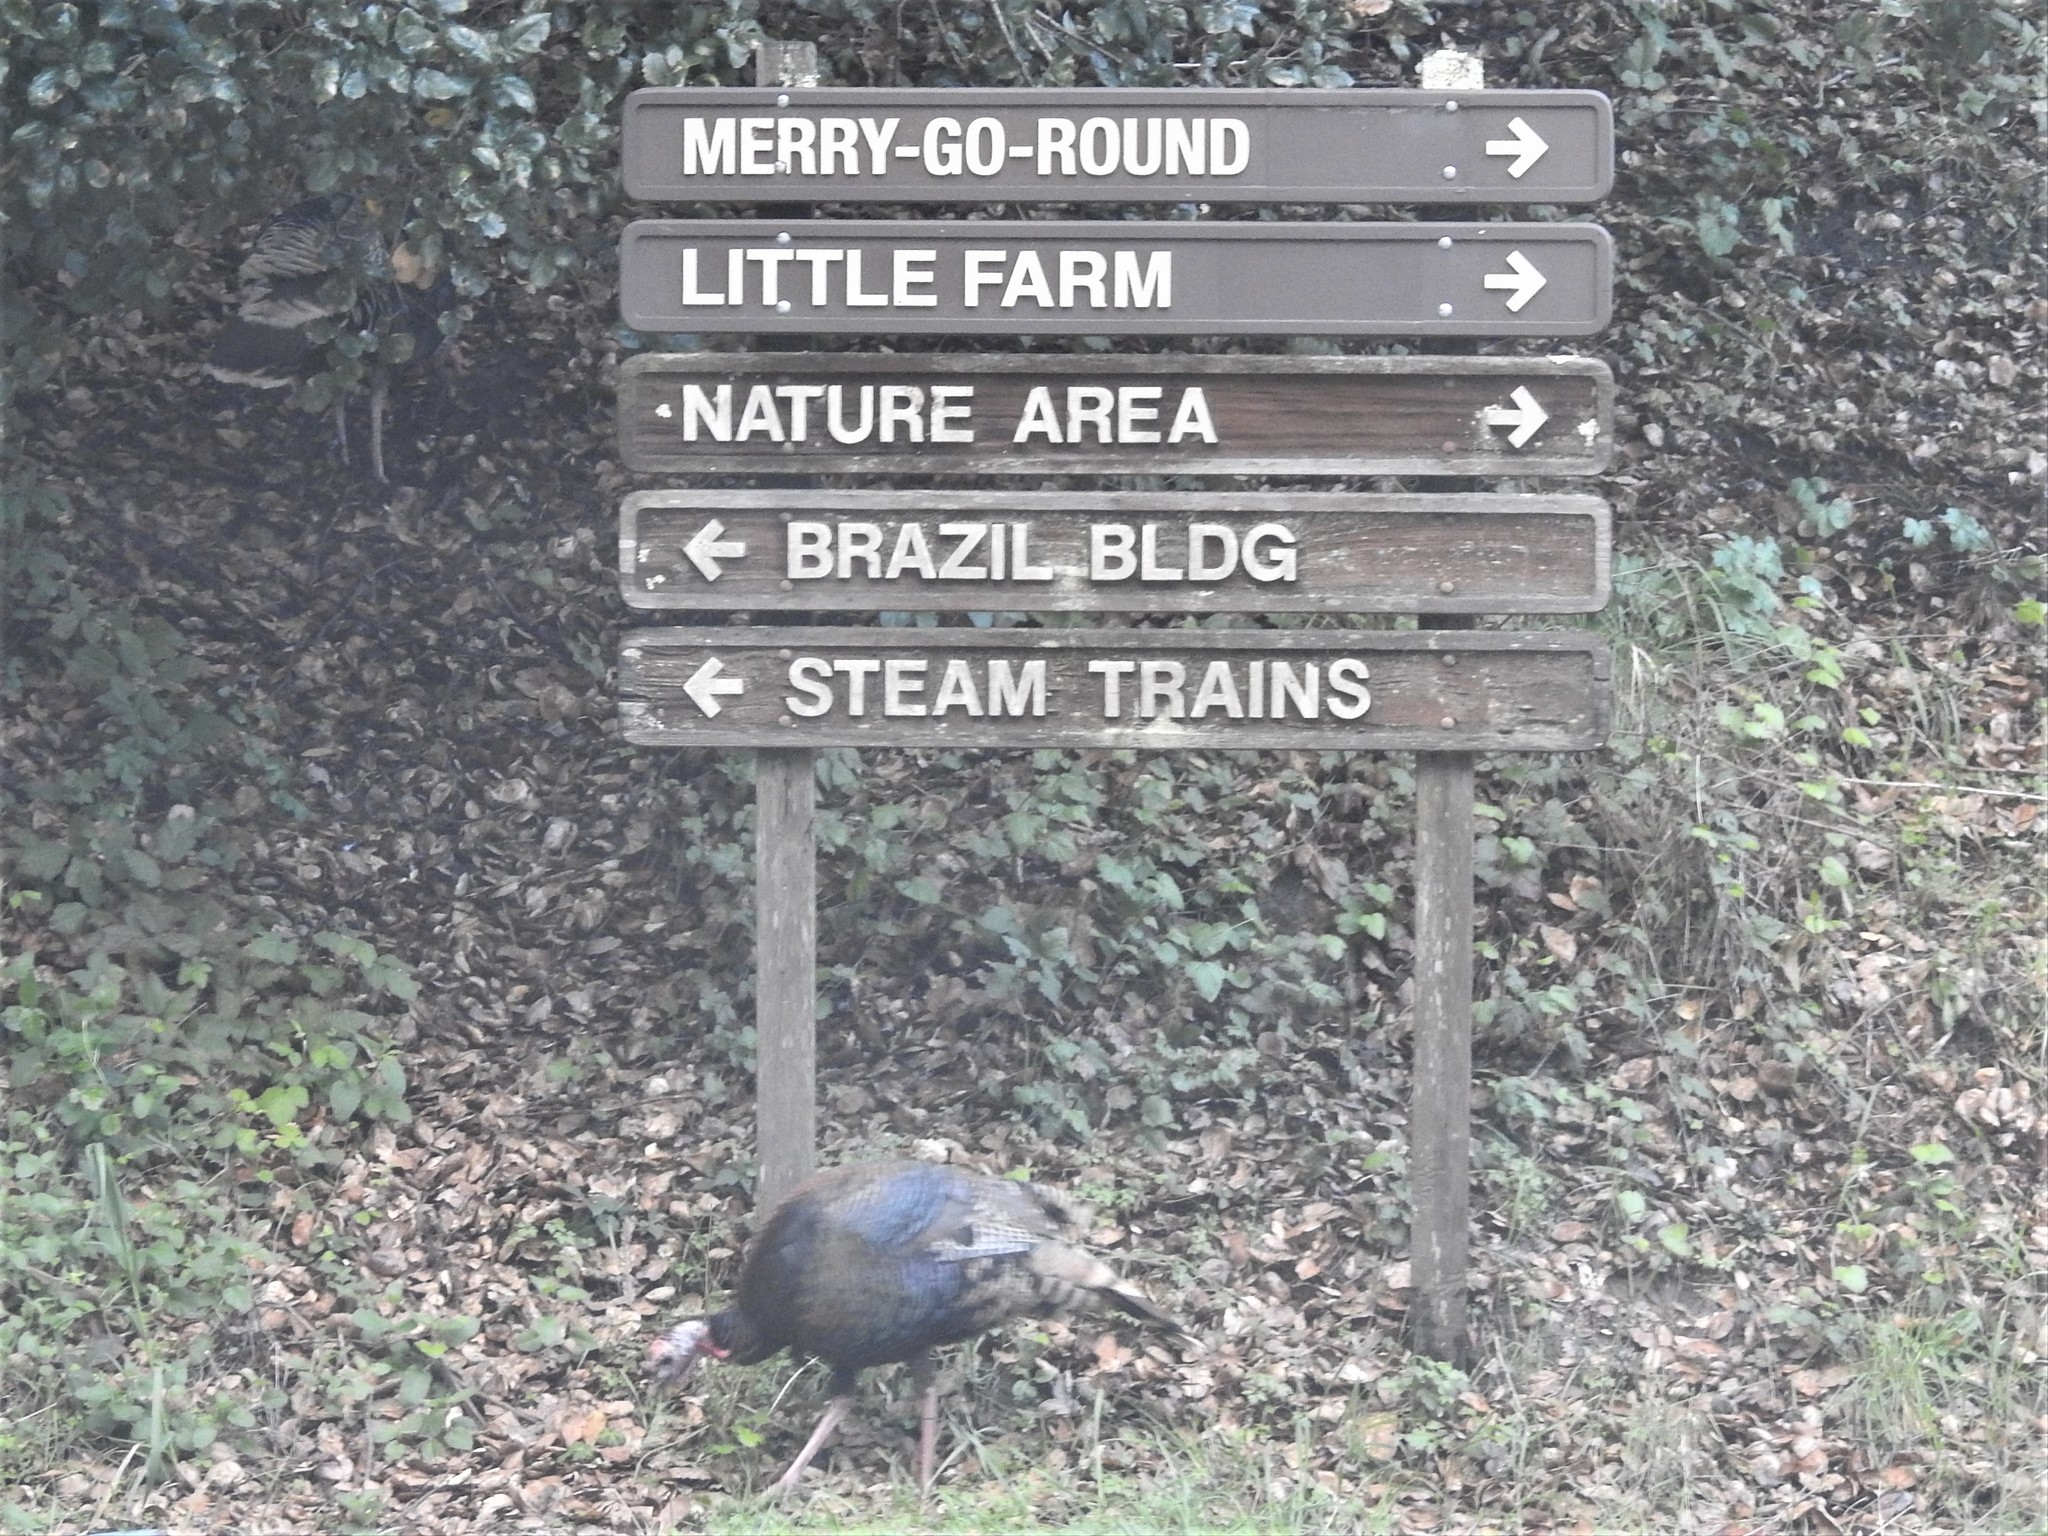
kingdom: Animalia
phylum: Chordata
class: Aves
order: Galliformes
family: Phasianidae
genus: Meleagris
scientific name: Meleagris gallopavo
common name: Wild turkey
